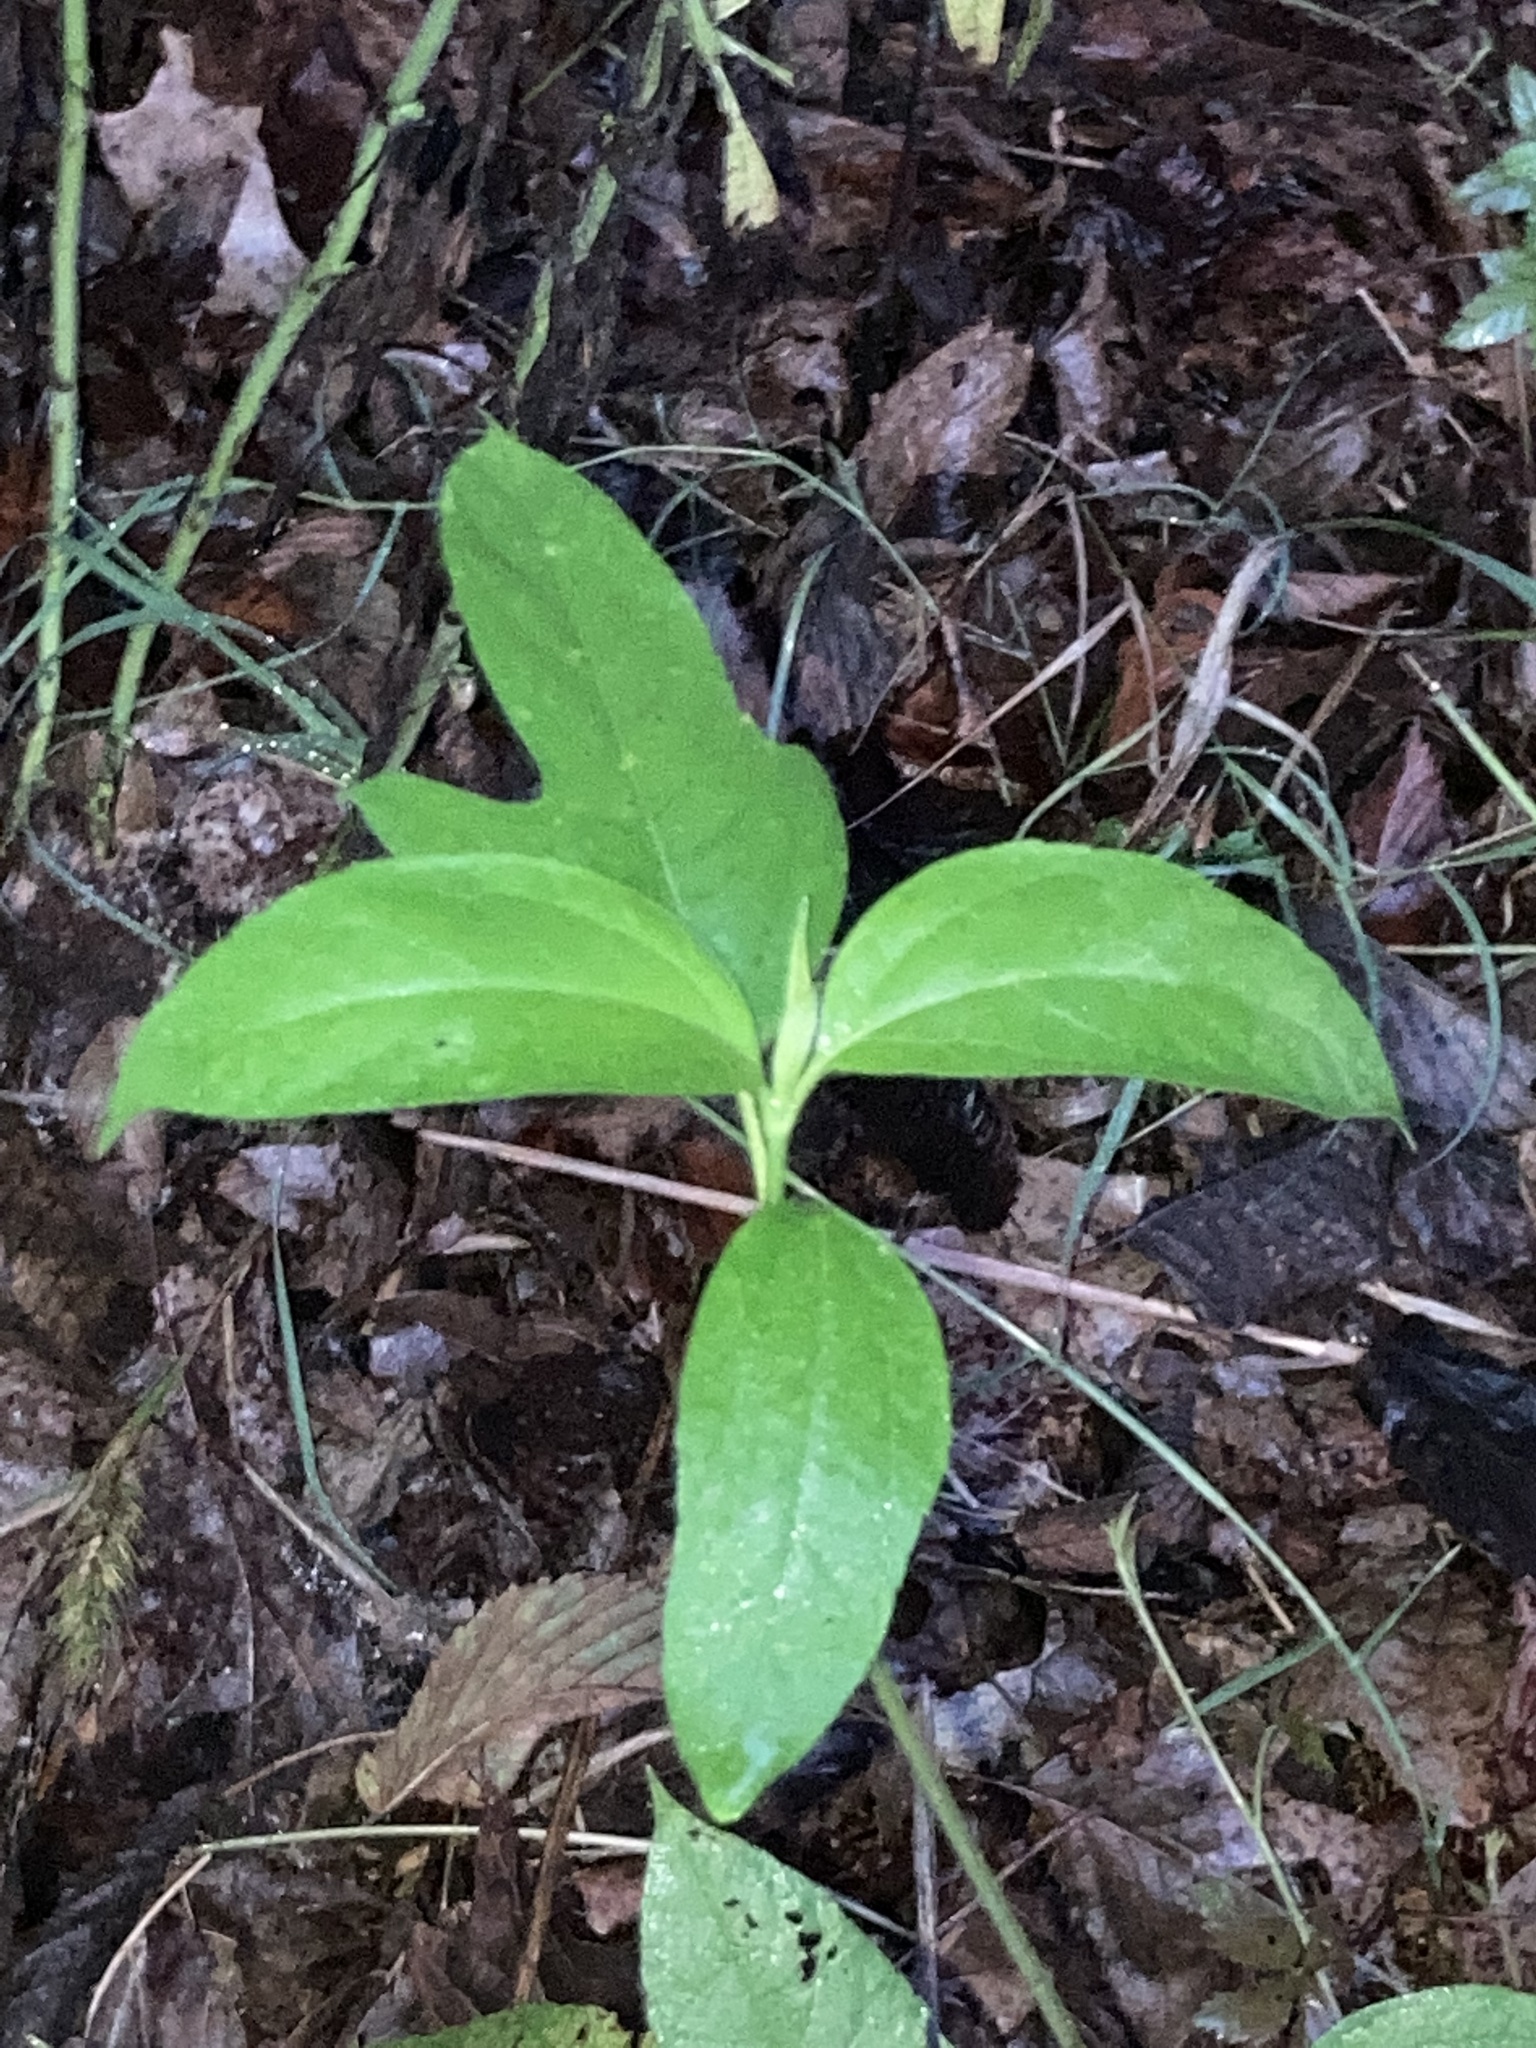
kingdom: Plantae
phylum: Tracheophyta
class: Magnoliopsida
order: Laurales
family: Lauraceae
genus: Sassafras
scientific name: Sassafras albidum
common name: Sassafras
